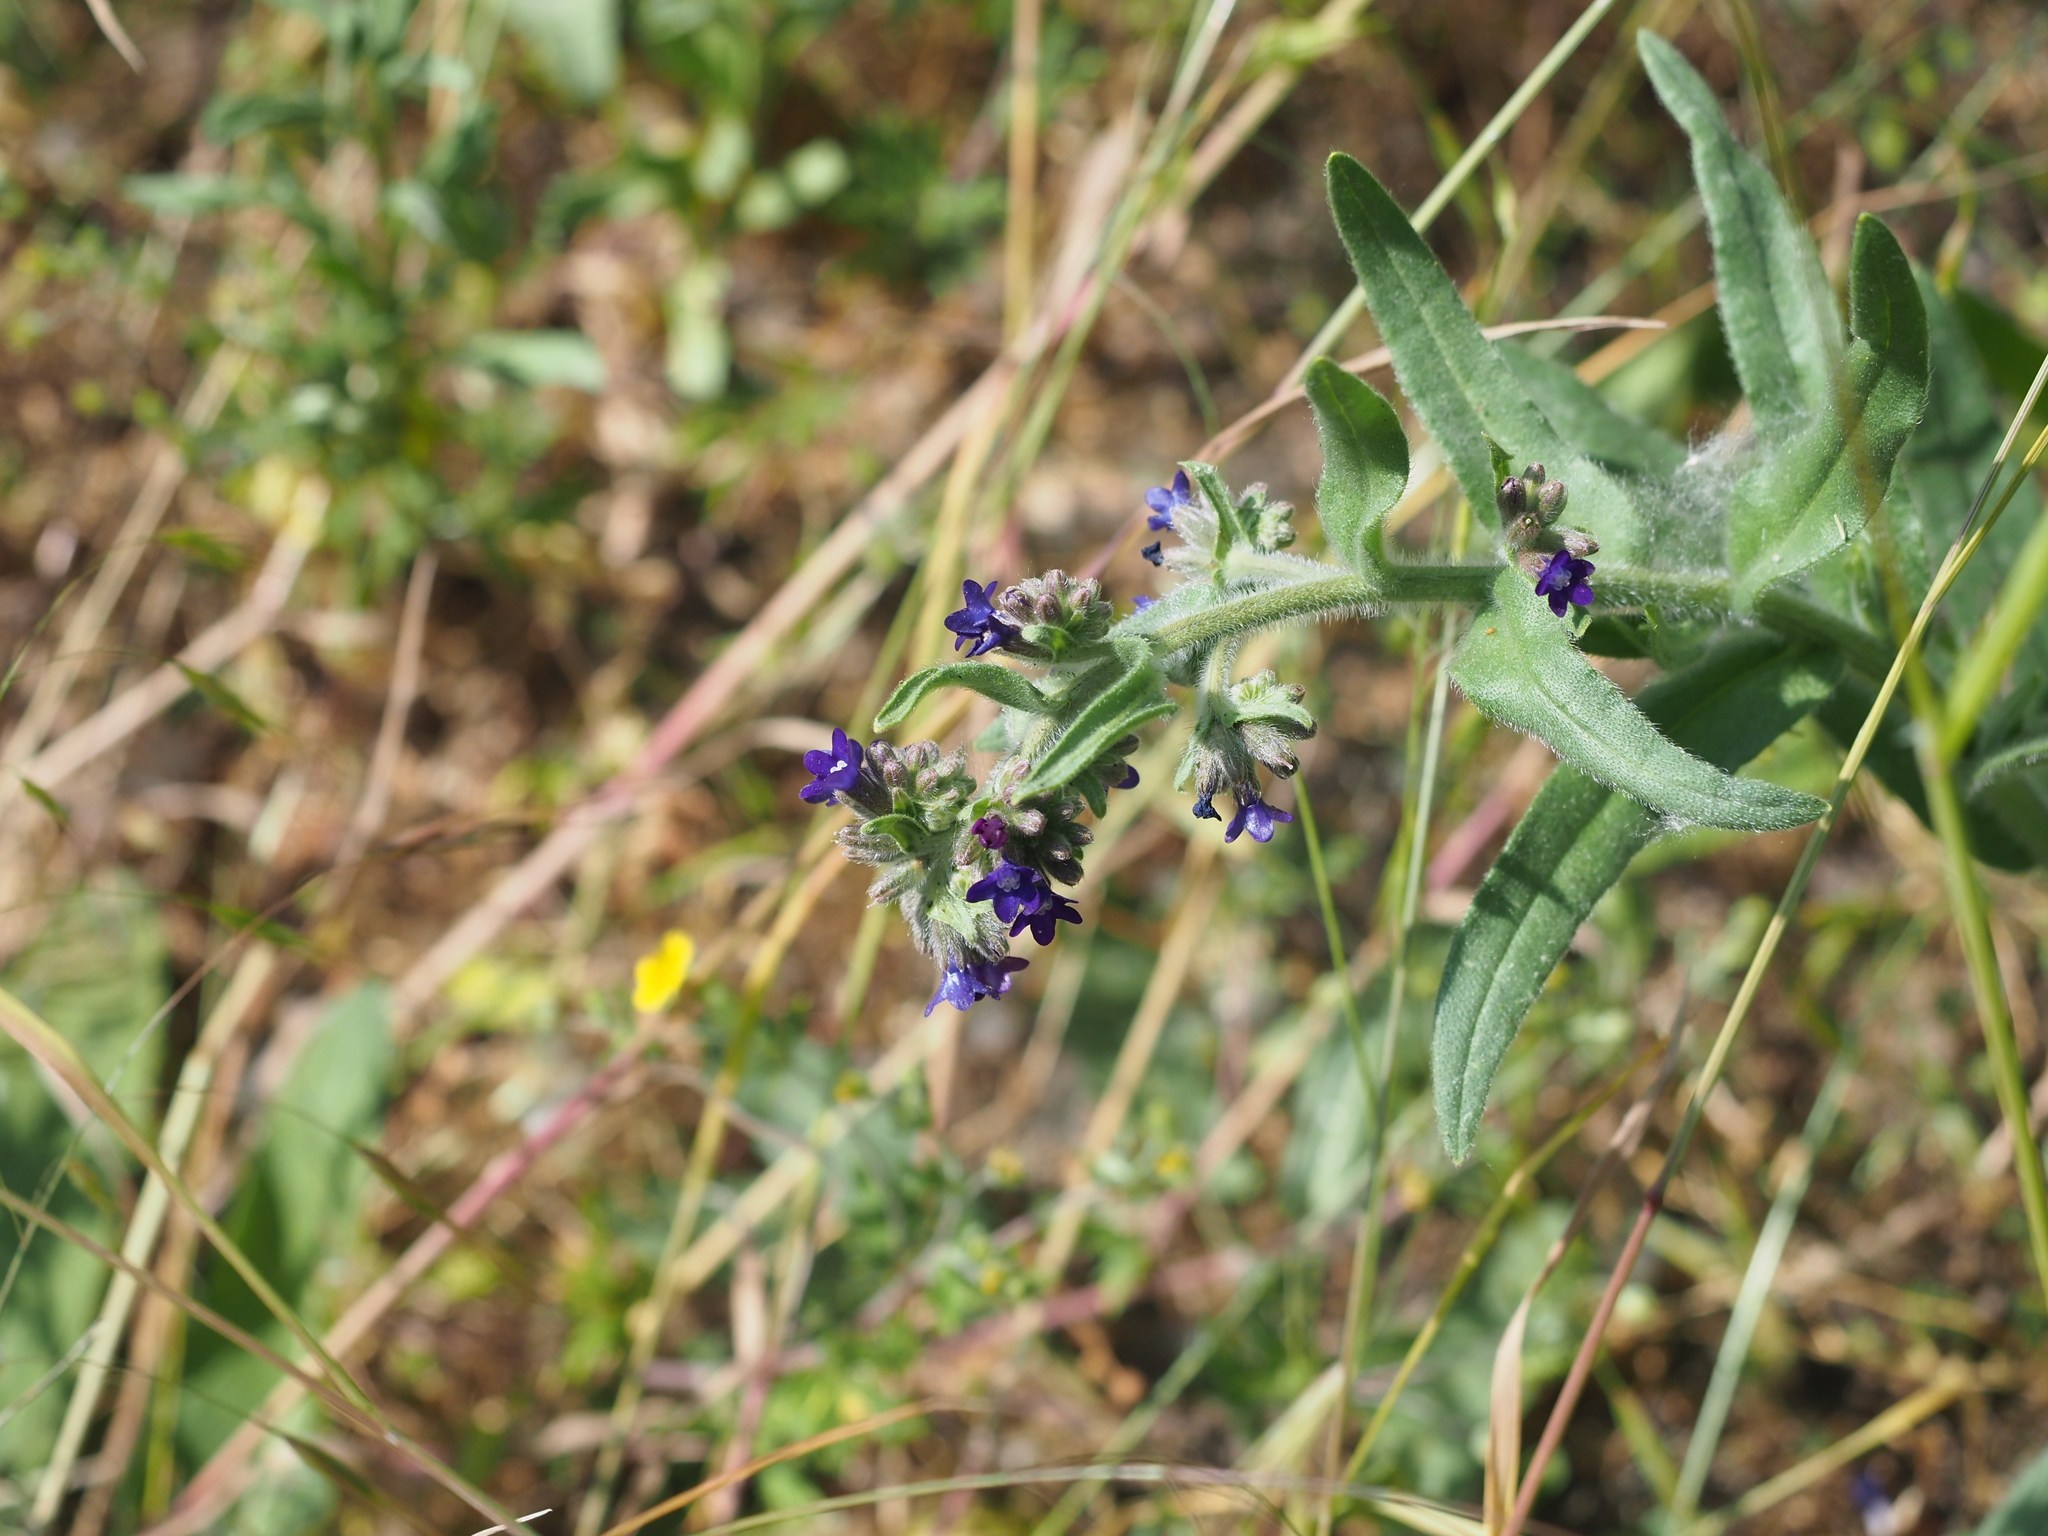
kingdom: Plantae
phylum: Tracheophyta
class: Magnoliopsida
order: Boraginales
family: Boraginaceae
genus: Anchusa
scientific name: Anchusa officinalis
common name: Alkanet
